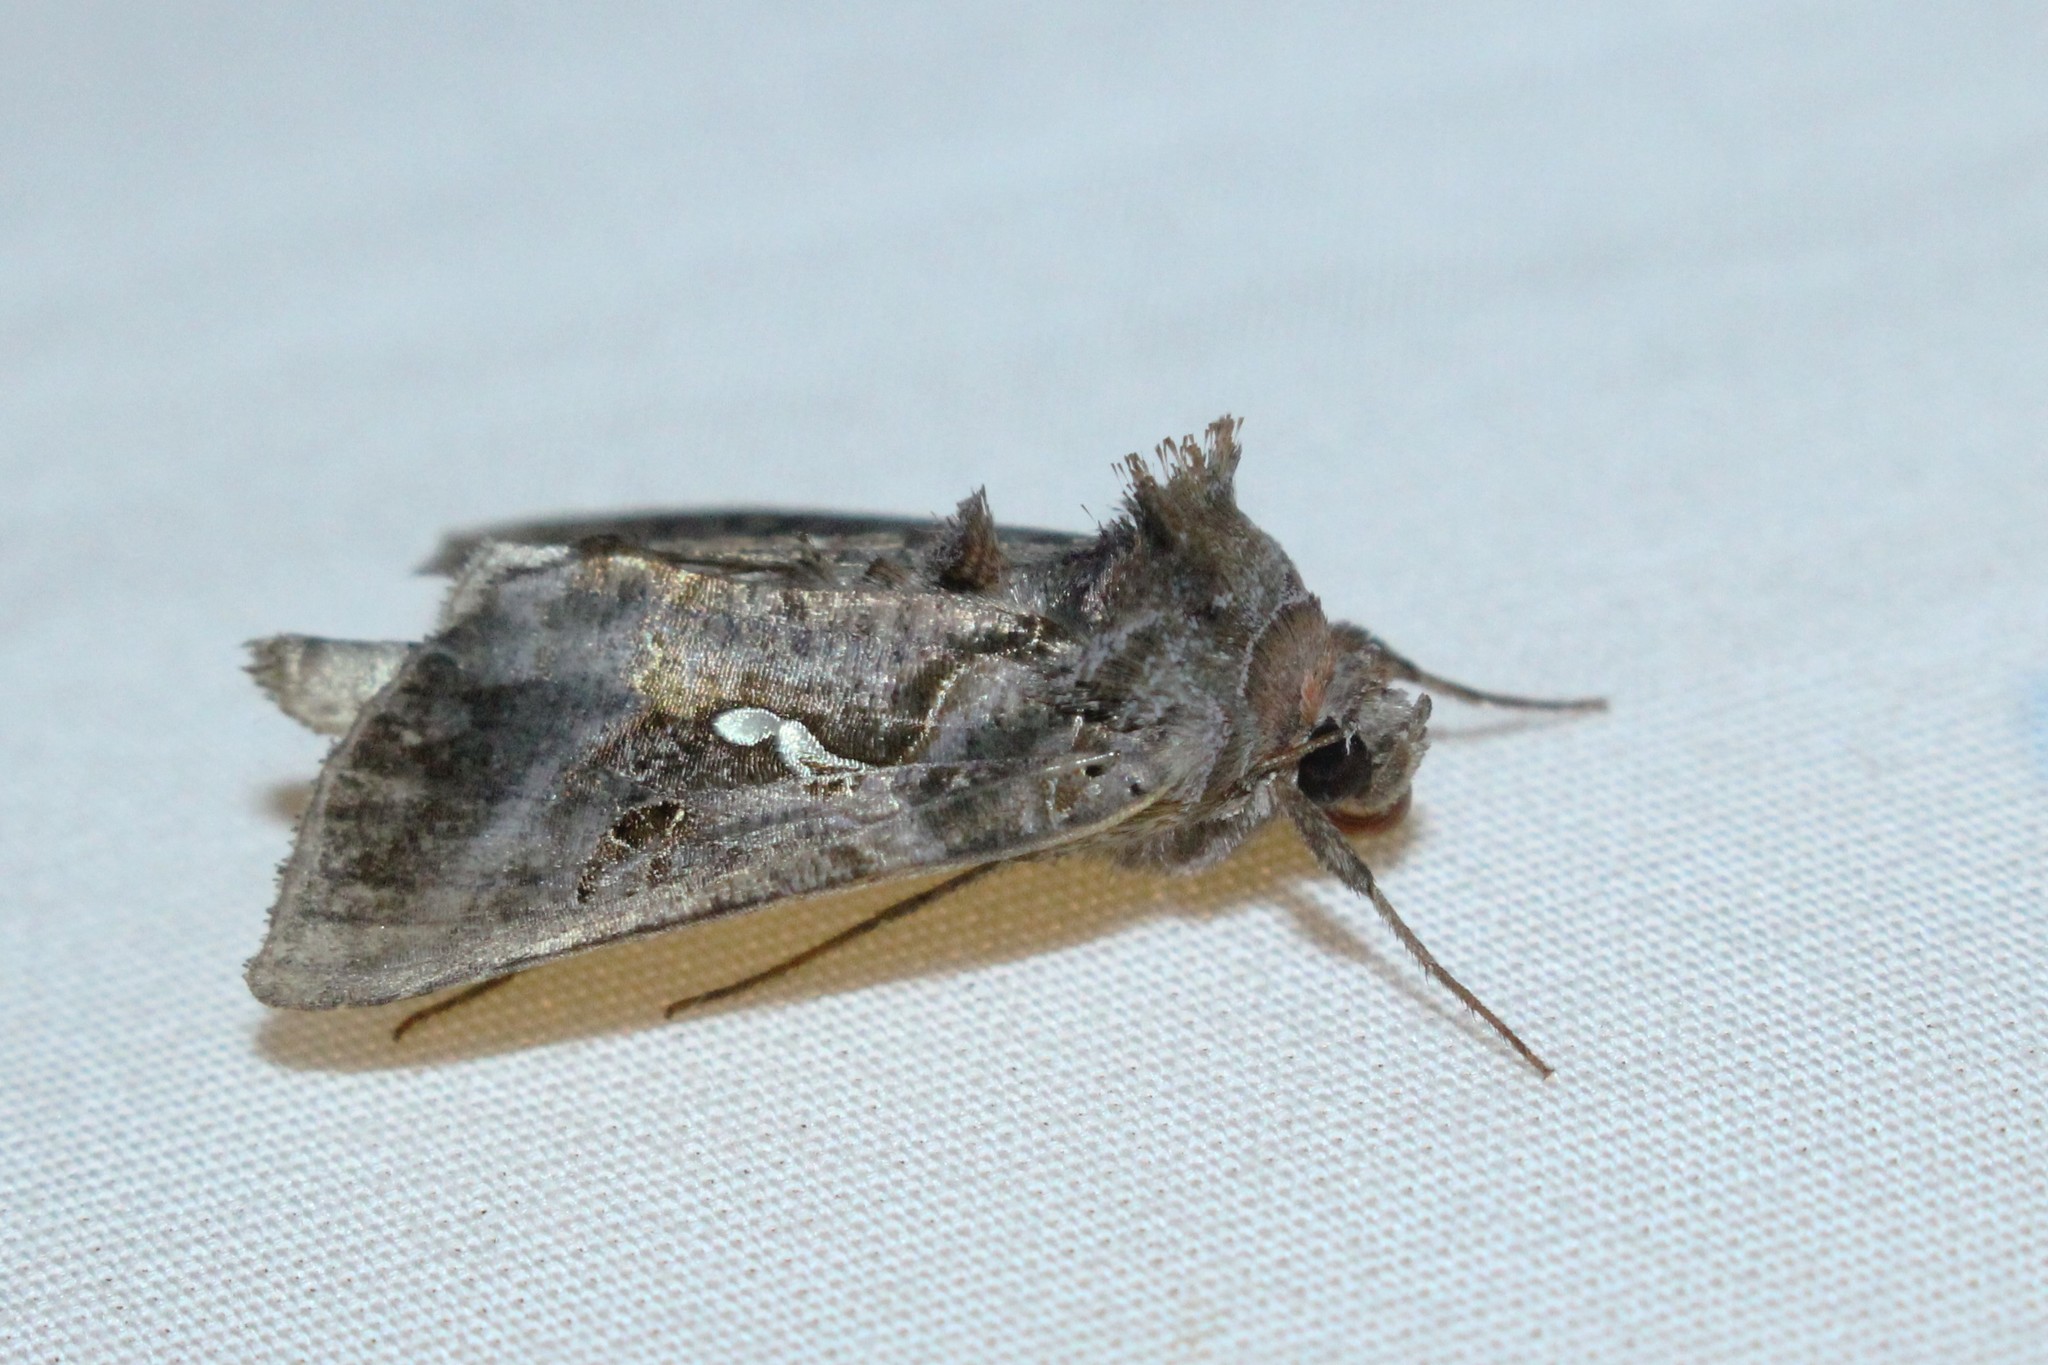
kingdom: Animalia
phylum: Arthropoda
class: Insecta
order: Lepidoptera
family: Noctuidae
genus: Autographa
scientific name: Autographa precationis
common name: Common looper moth
